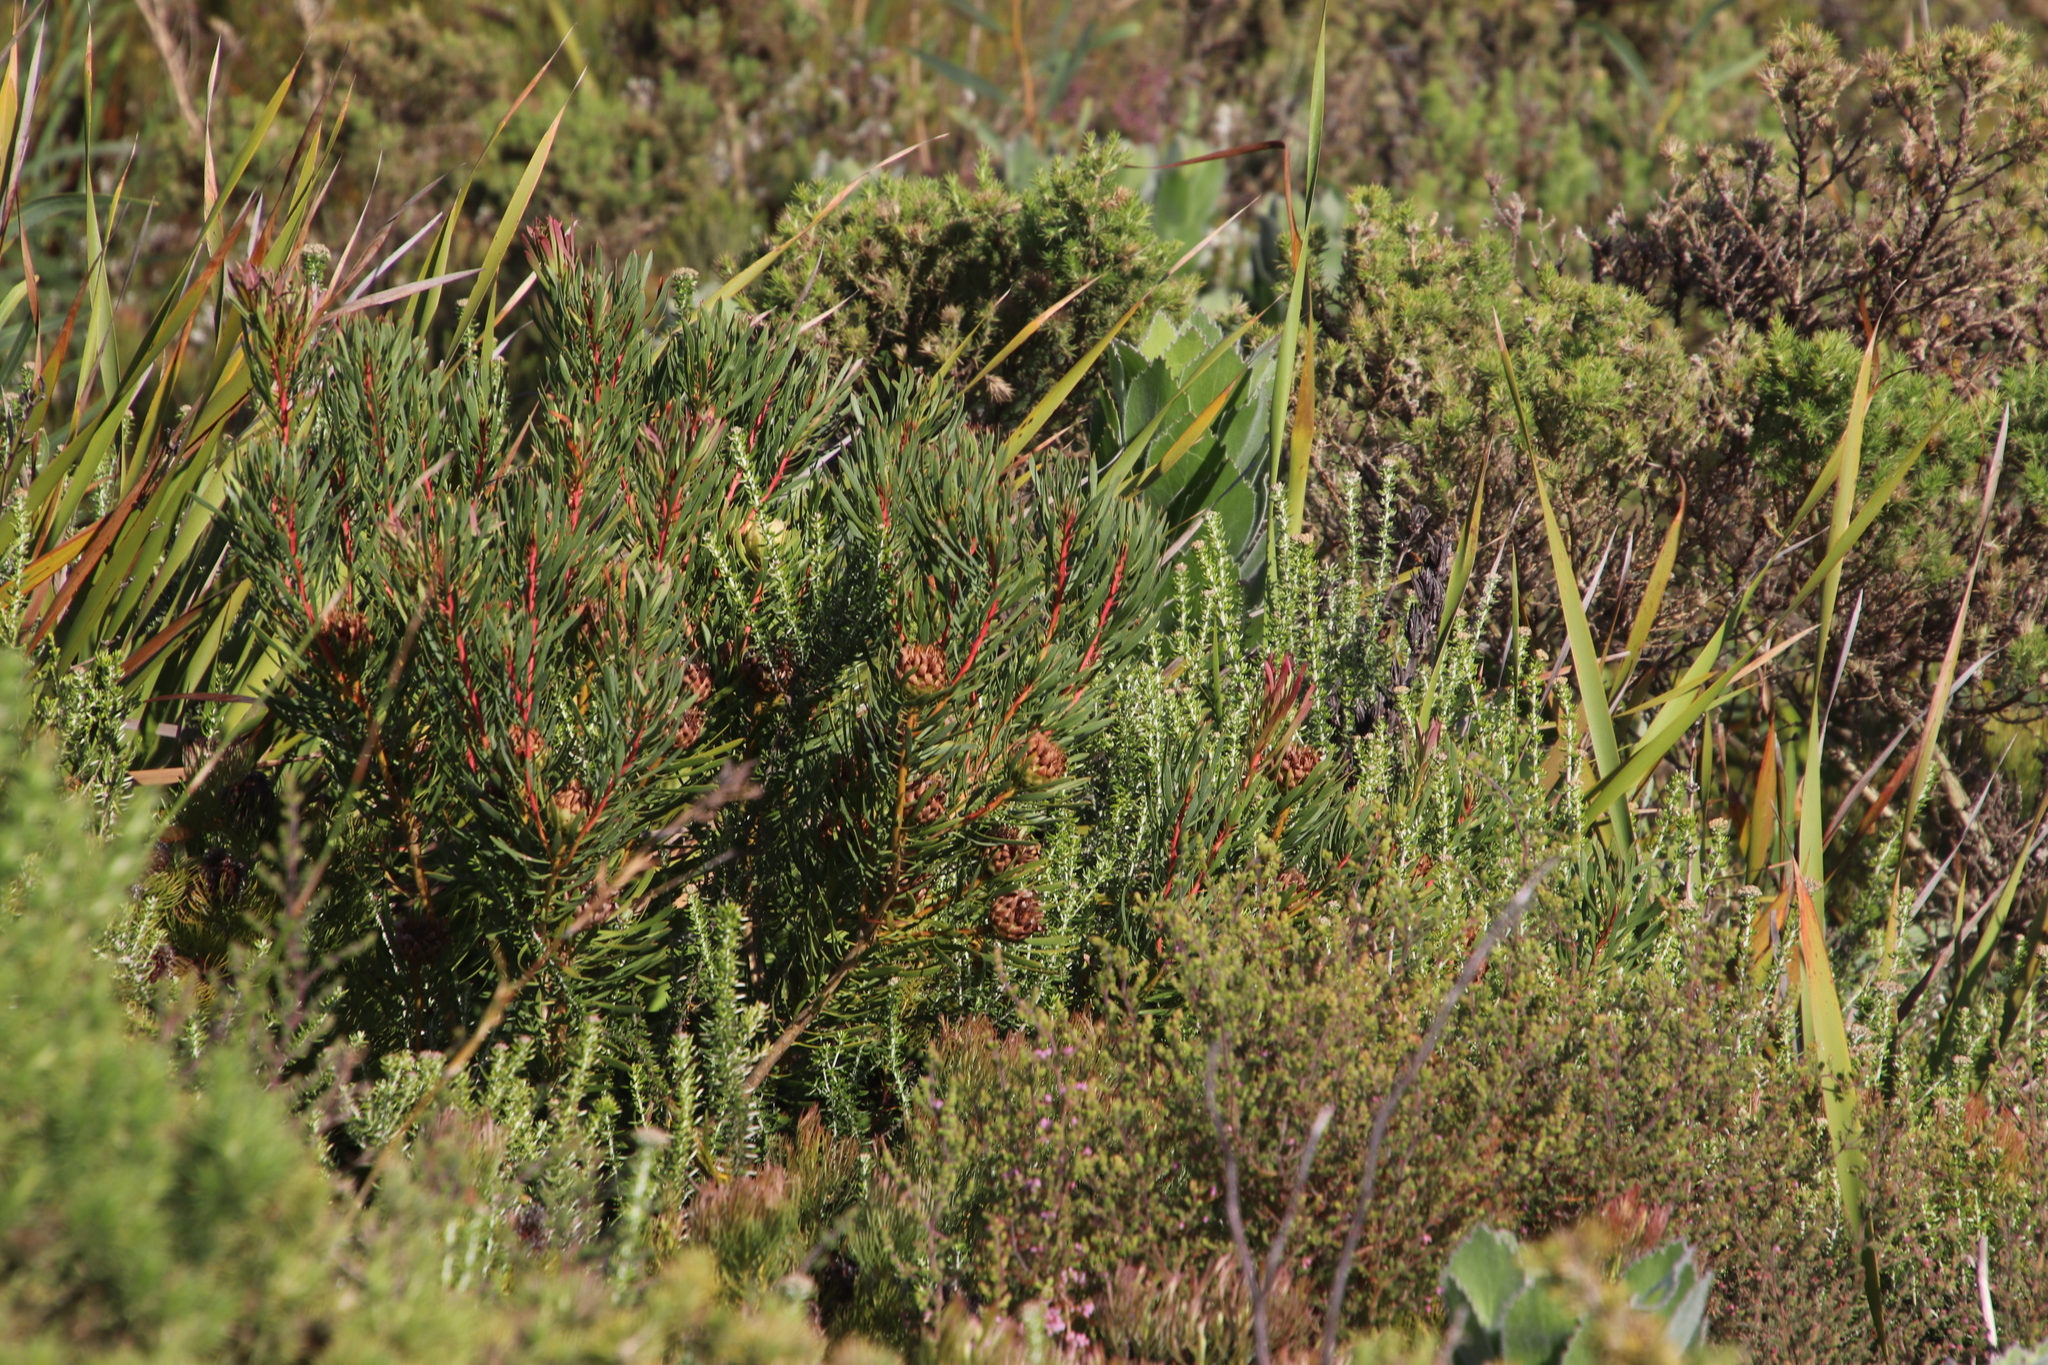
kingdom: Plantae
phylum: Tracheophyta
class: Magnoliopsida
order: Proteales
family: Proteaceae
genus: Protea
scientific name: Protea scolymocephala
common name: Thistle sugarbush
